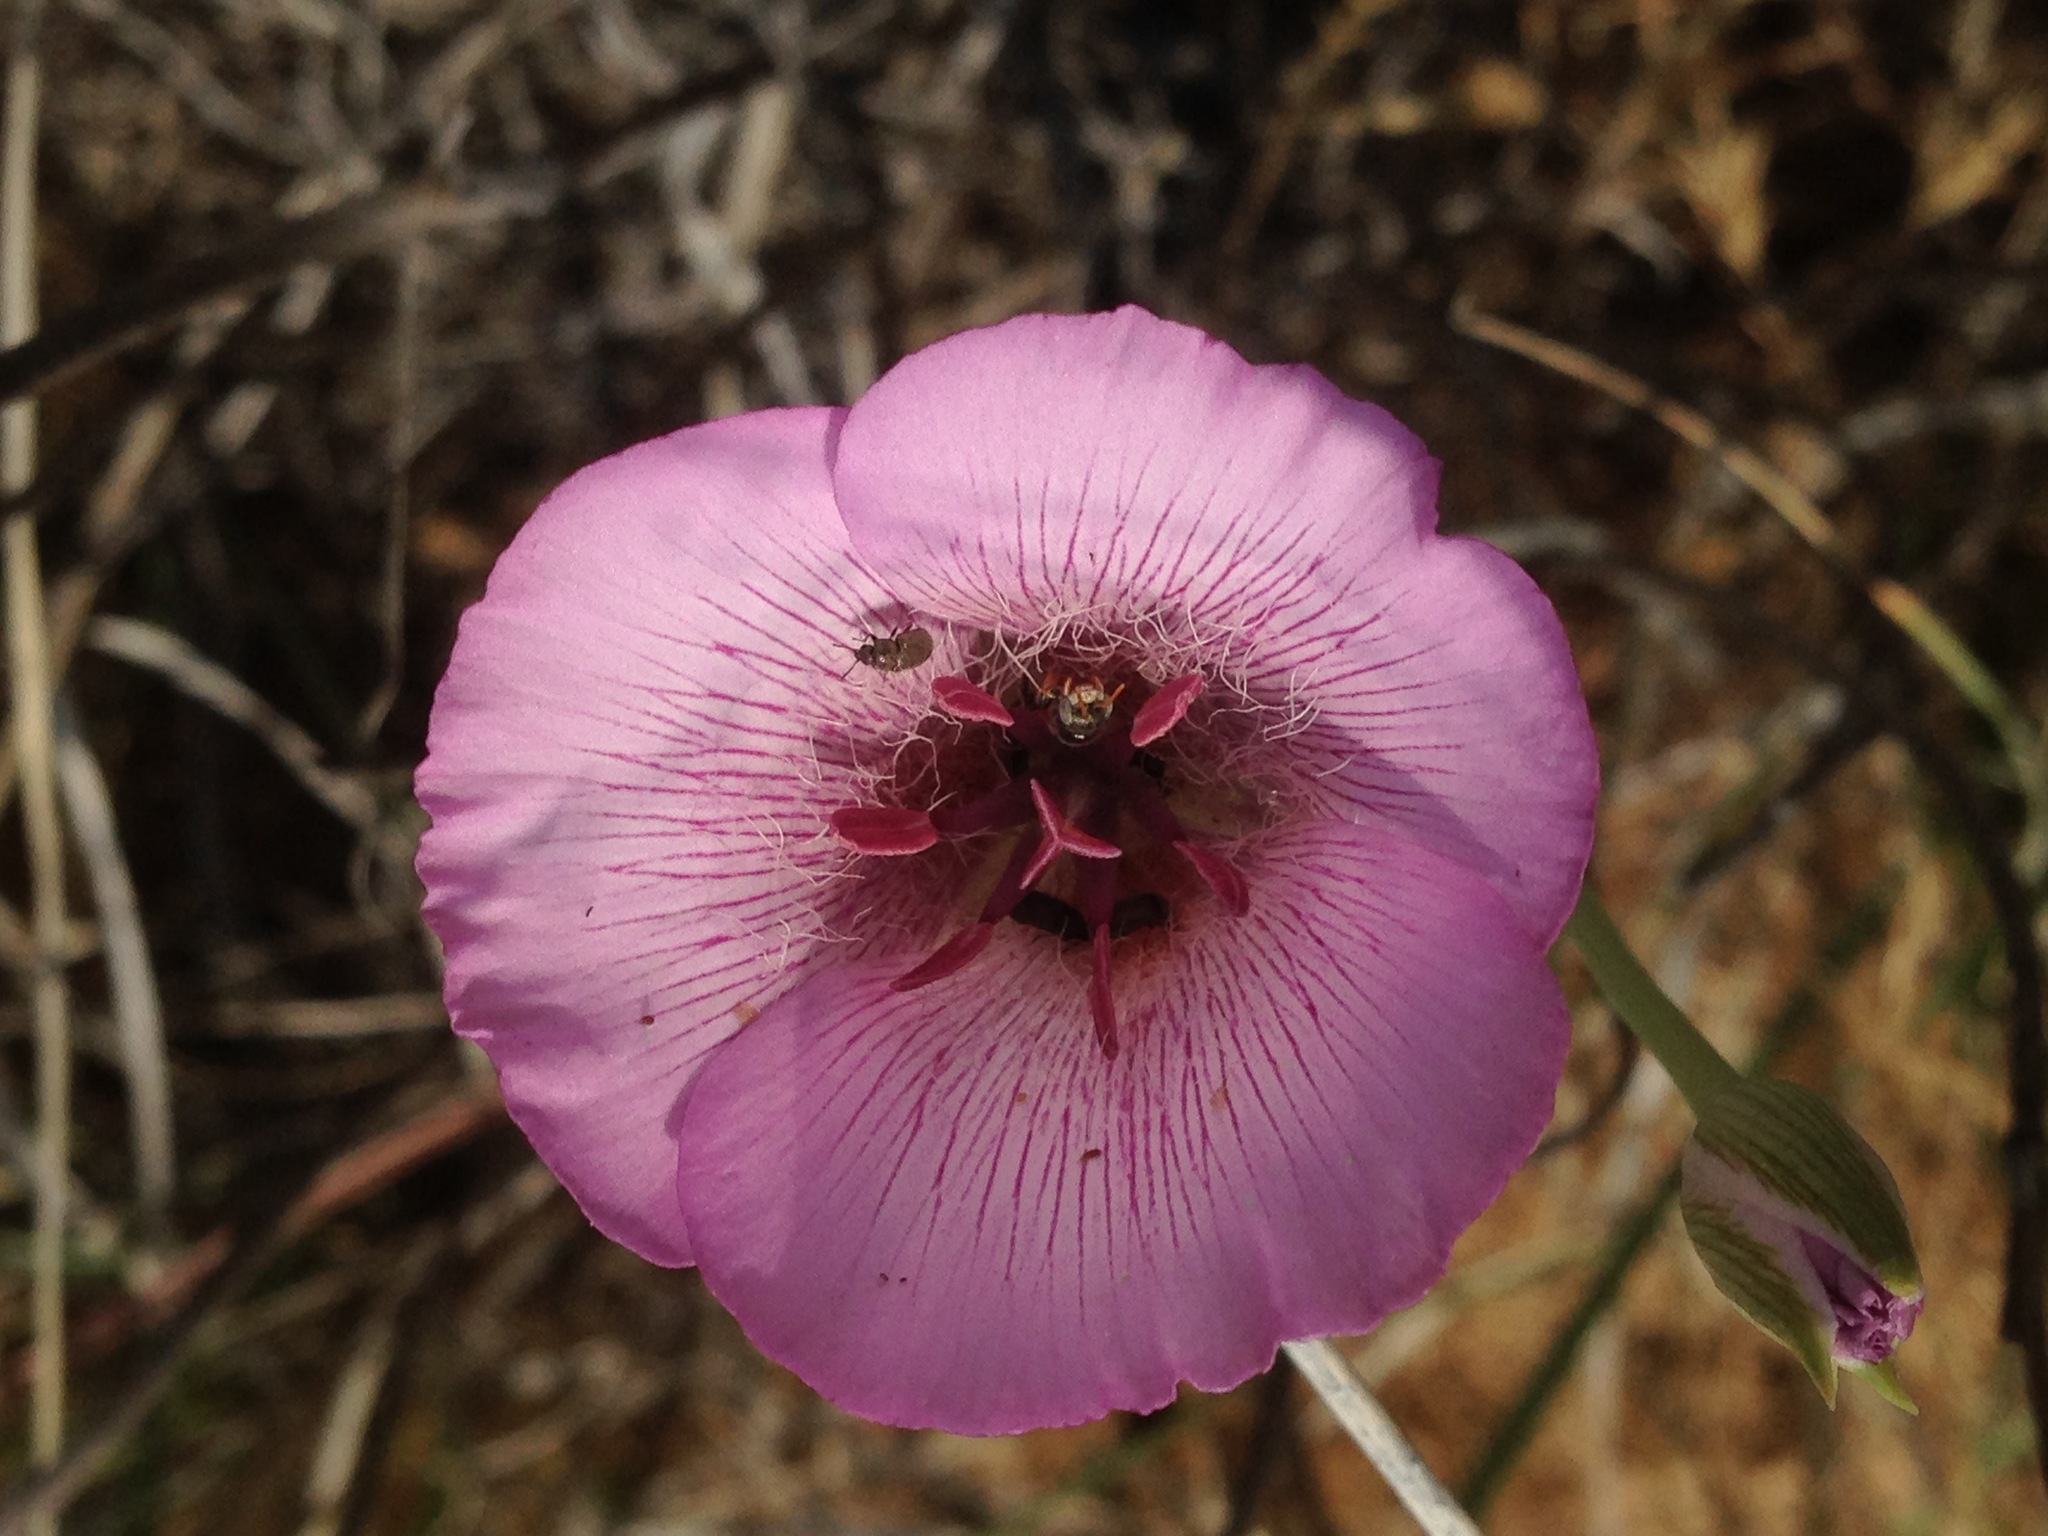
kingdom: Plantae
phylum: Tracheophyta
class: Liliopsida
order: Liliales
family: Liliaceae
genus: Calochortus
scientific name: Calochortus striatus
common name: Alkali mariposa-lily
